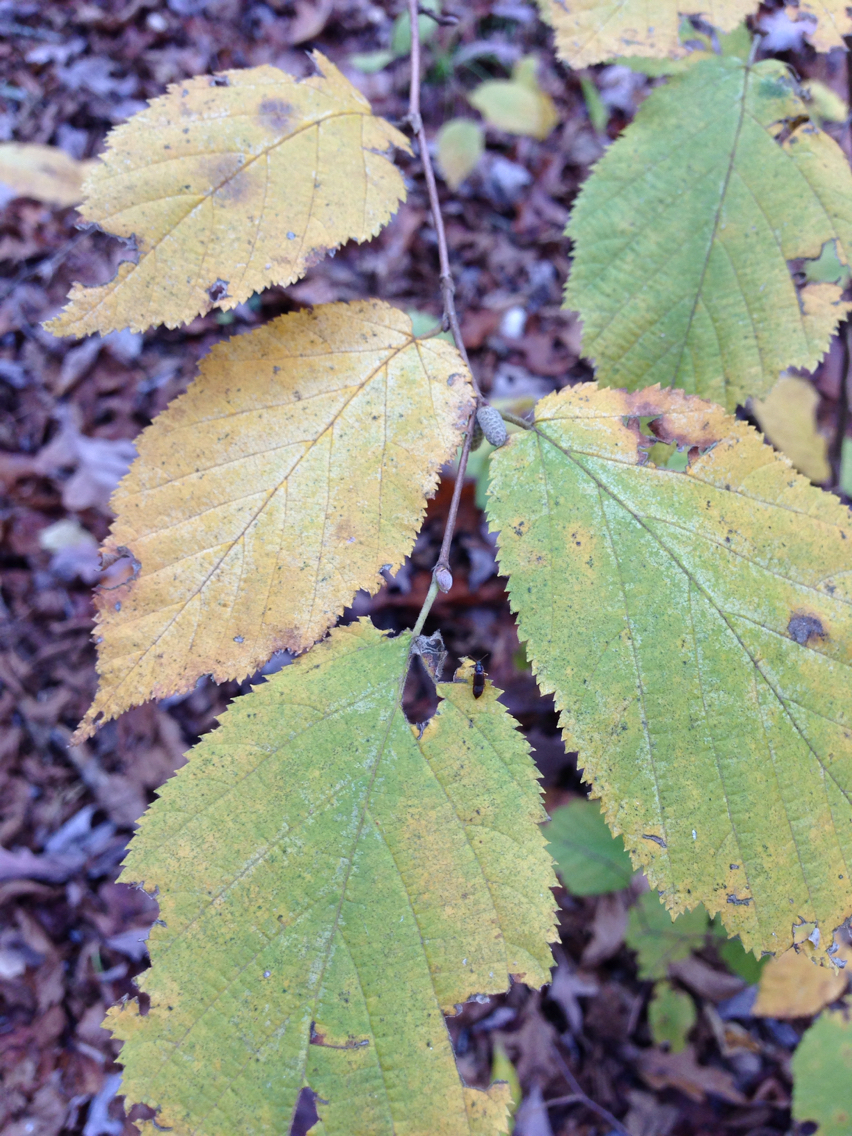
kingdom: Plantae
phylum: Tracheophyta
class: Magnoliopsida
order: Fagales
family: Betulaceae
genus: Corylus
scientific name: Corylus cornuta
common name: Beaked hazel
